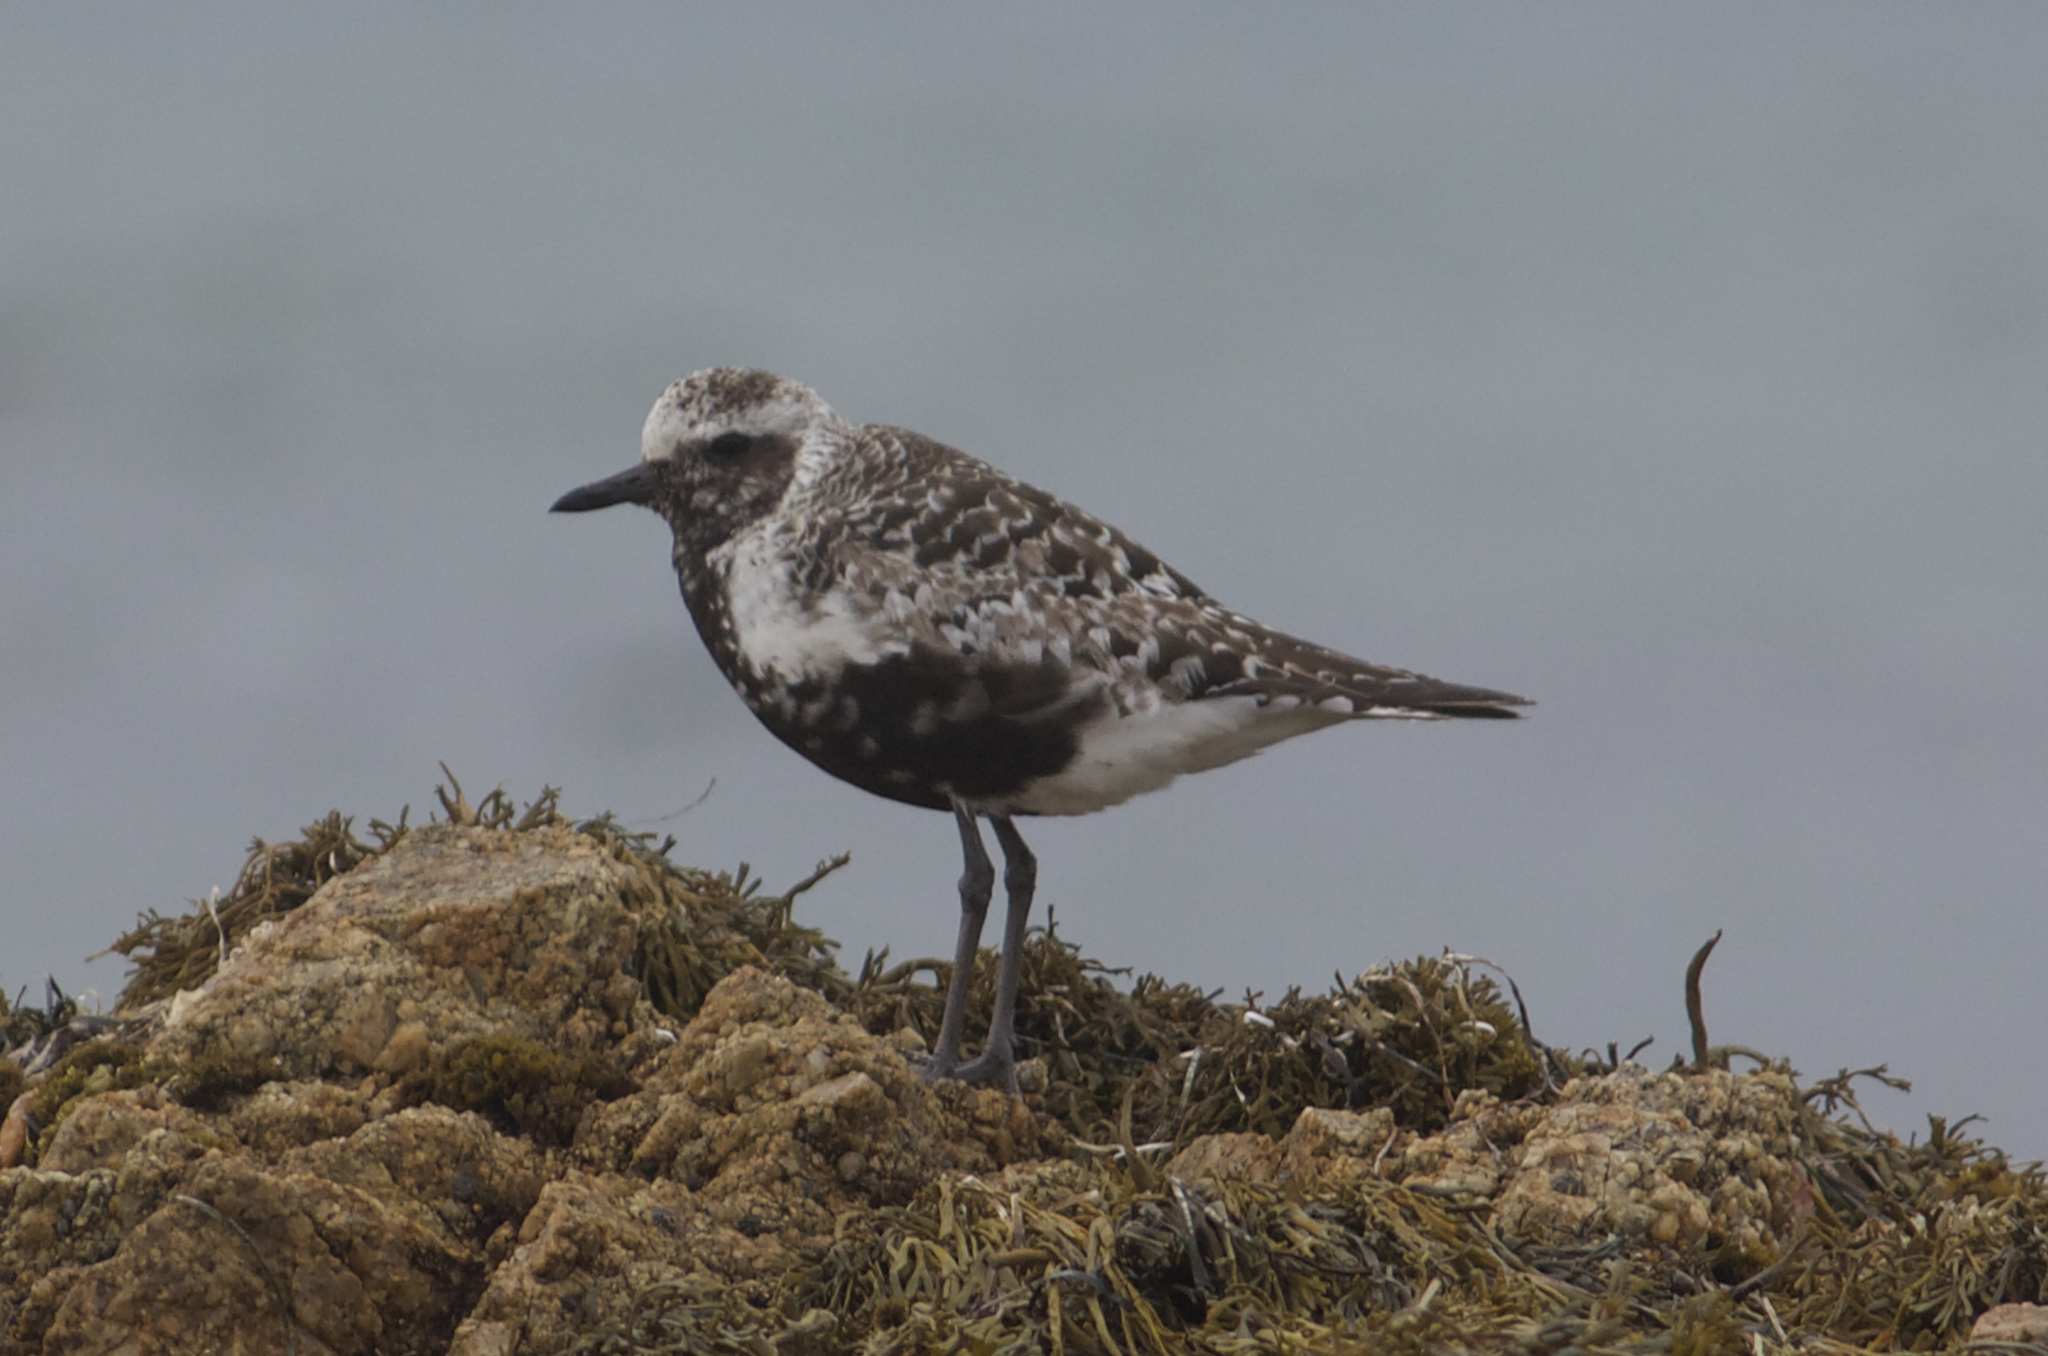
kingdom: Animalia
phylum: Chordata
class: Aves
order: Charadriiformes
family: Charadriidae
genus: Pluvialis
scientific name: Pluvialis squatarola
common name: Grey plover
